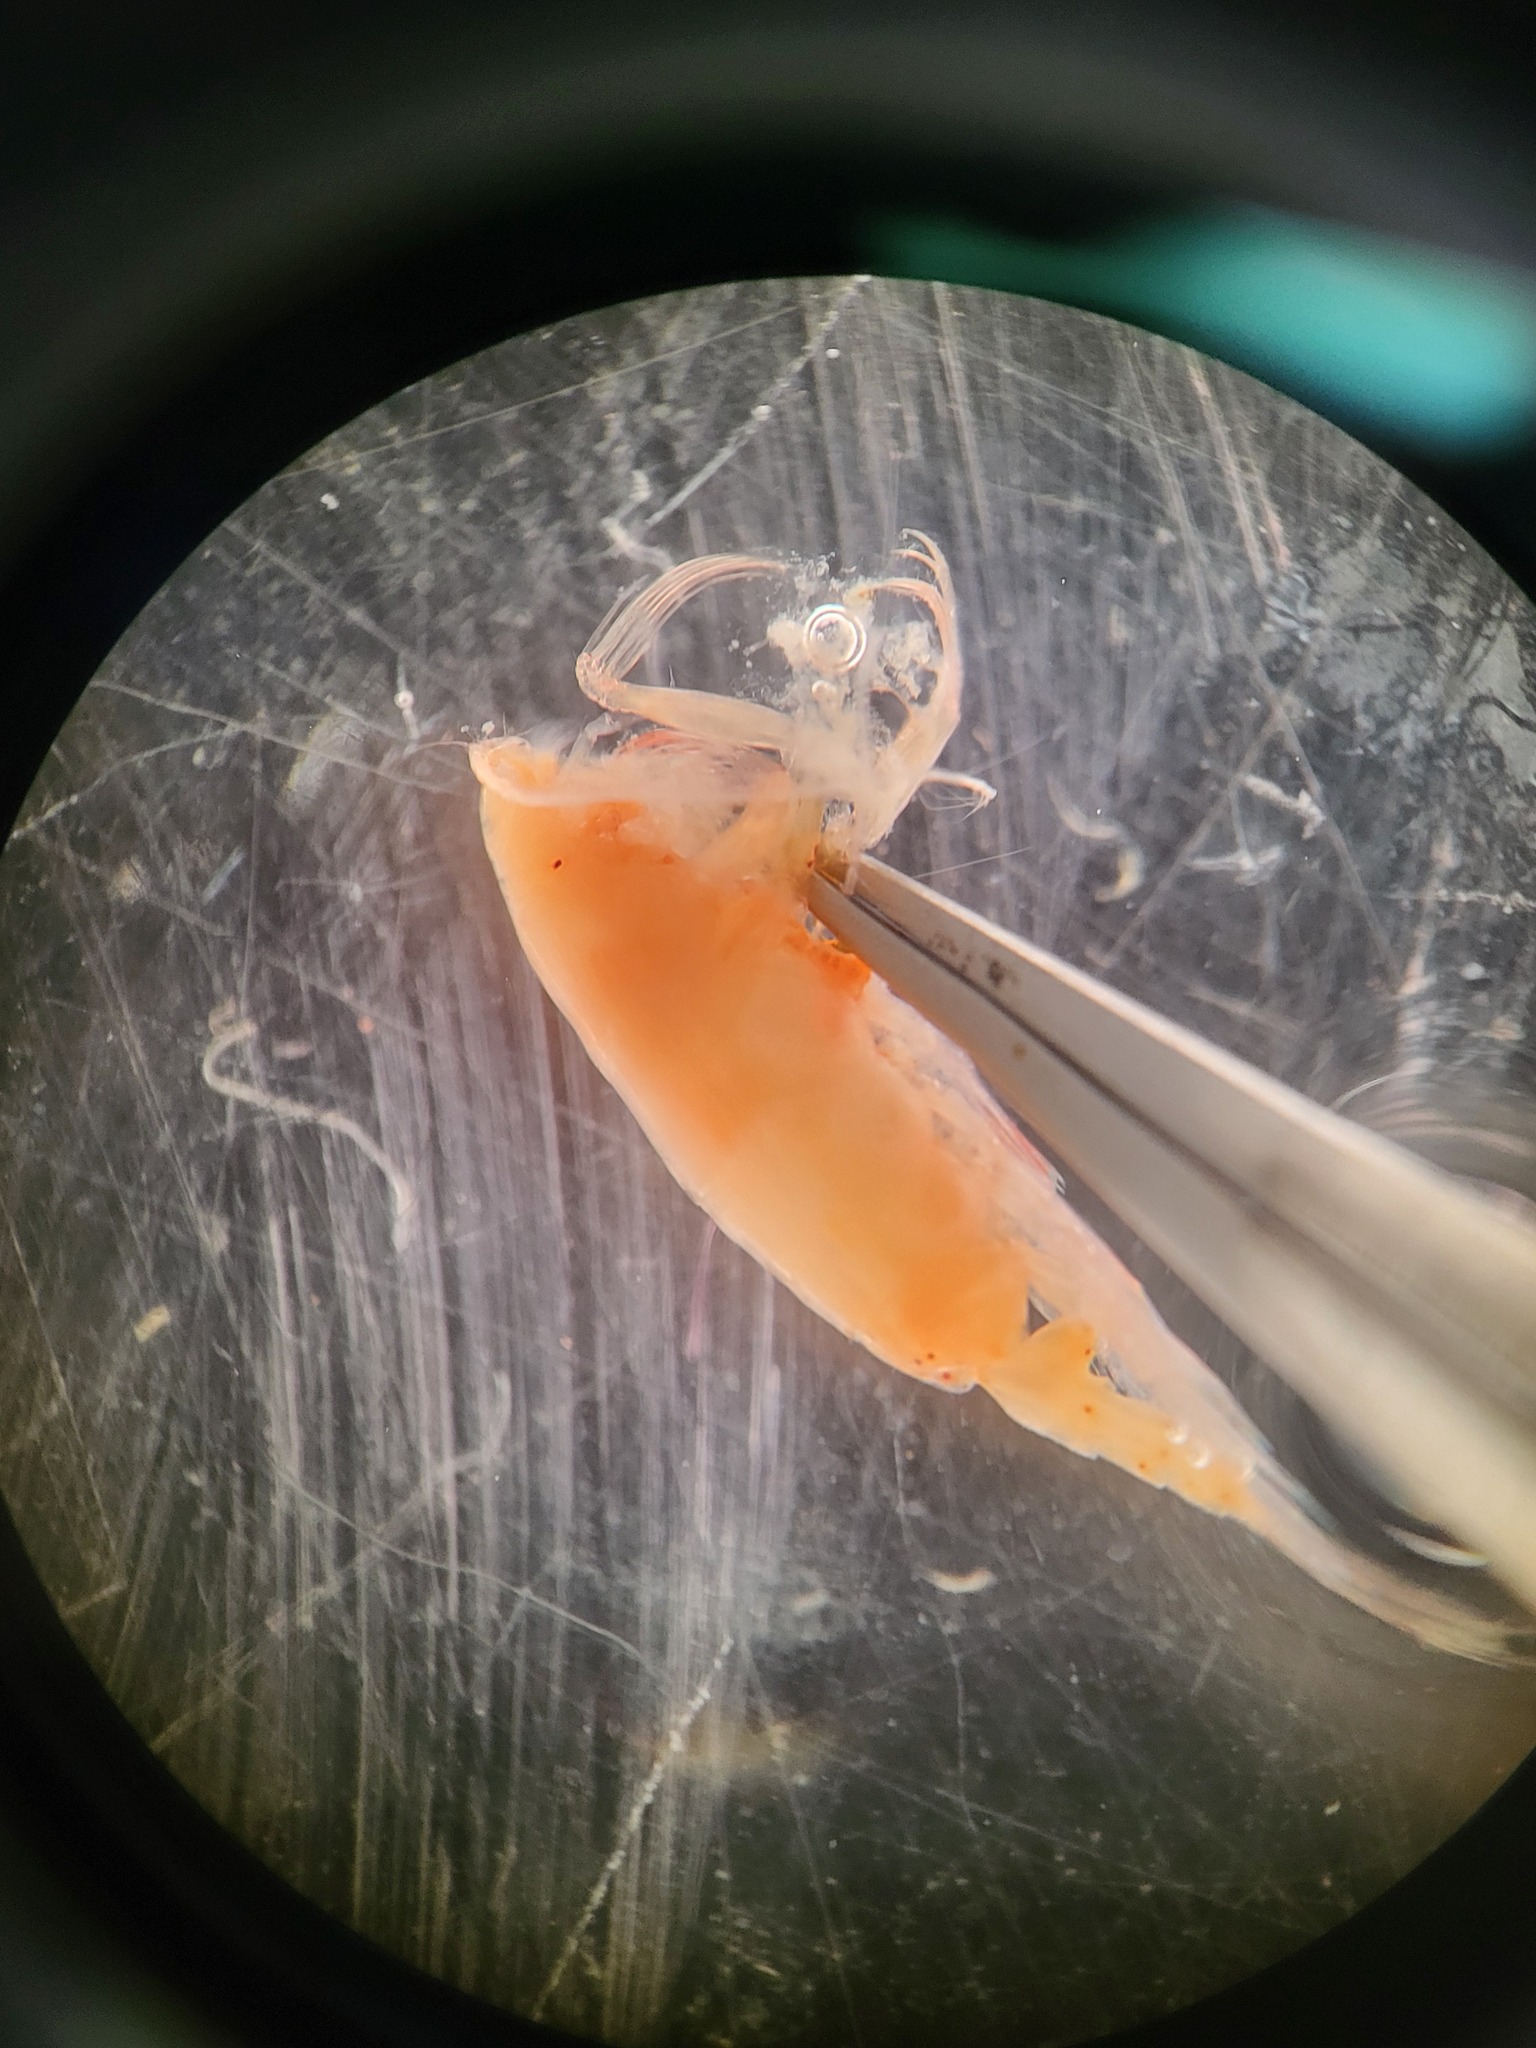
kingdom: Animalia
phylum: Arthropoda
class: Copepoda
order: Calanoida
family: Euchaetidae
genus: Paraeuchaeta
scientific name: Paraeuchaeta glacialis
